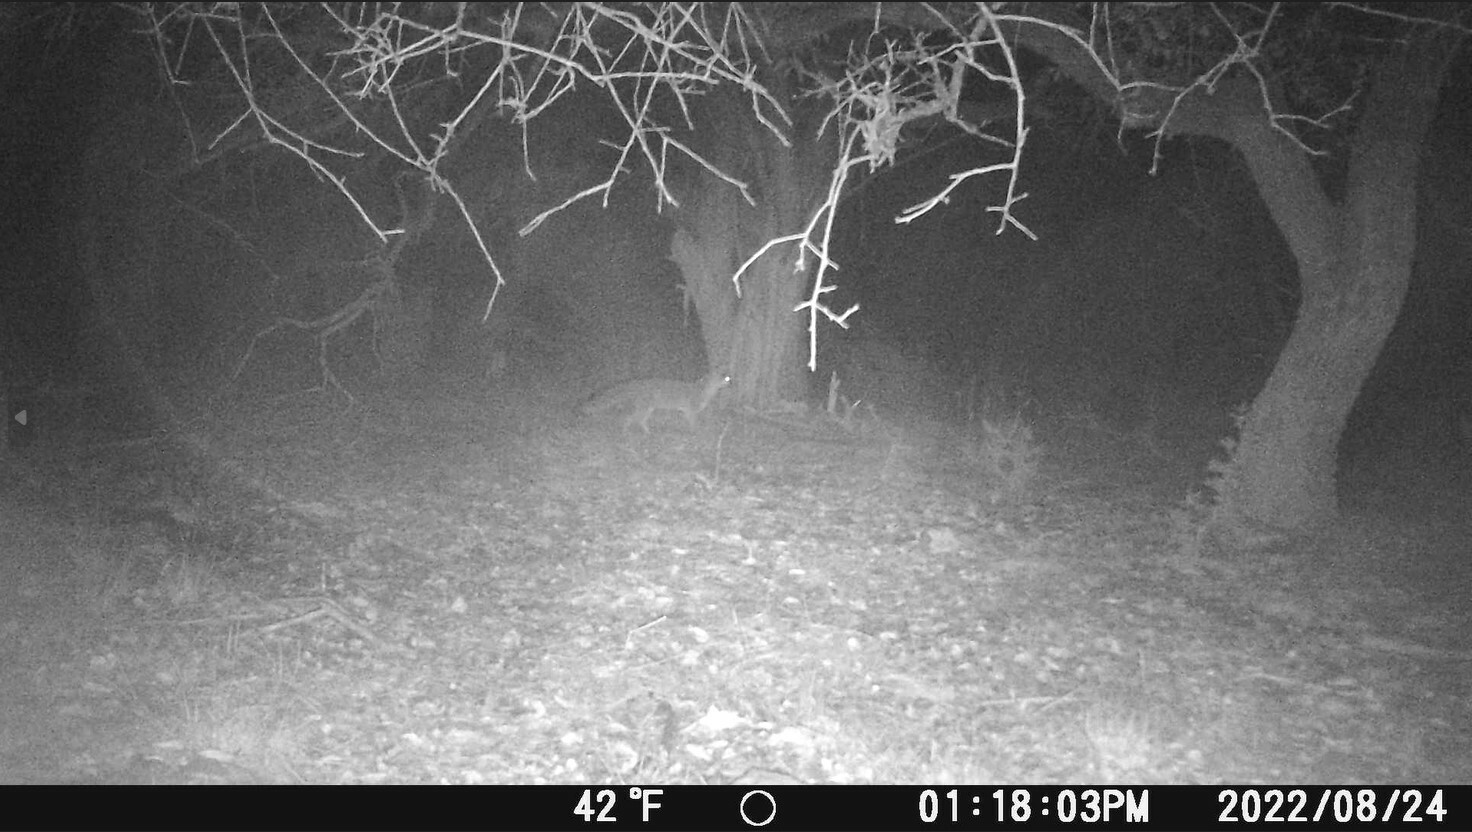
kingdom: Animalia
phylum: Chordata
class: Mammalia
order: Carnivora
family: Canidae
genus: Urocyon
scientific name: Urocyon cinereoargenteus
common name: Gray fox
